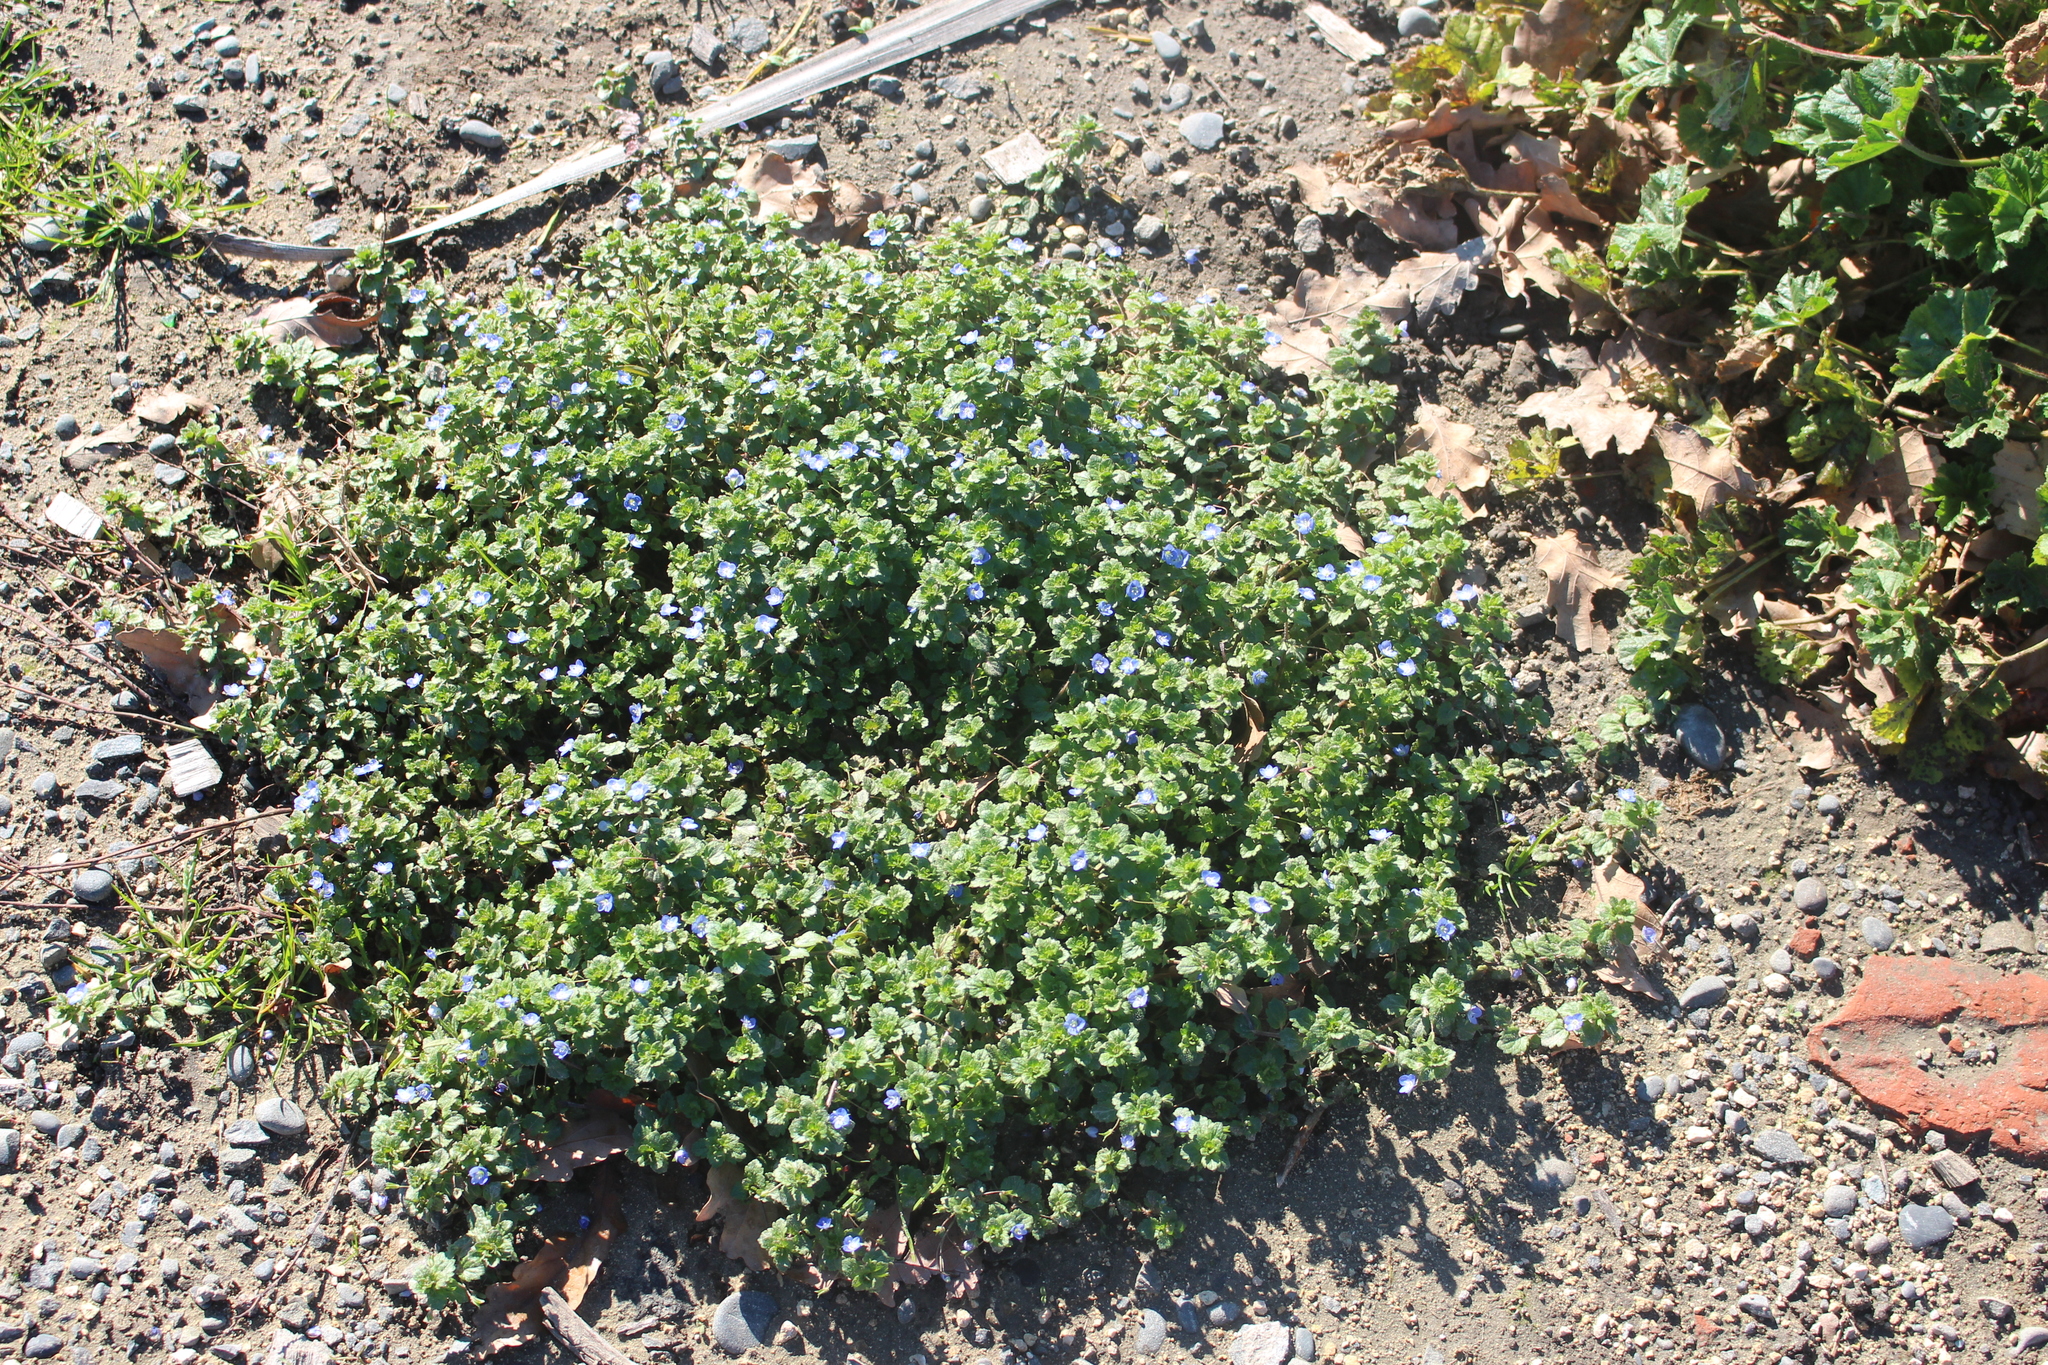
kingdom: Plantae
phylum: Tracheophyta
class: Magnoliopsida
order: Lamiales
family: Plantaginaceae
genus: Veronica
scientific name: Veronica persica
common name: Common field-speedwell
